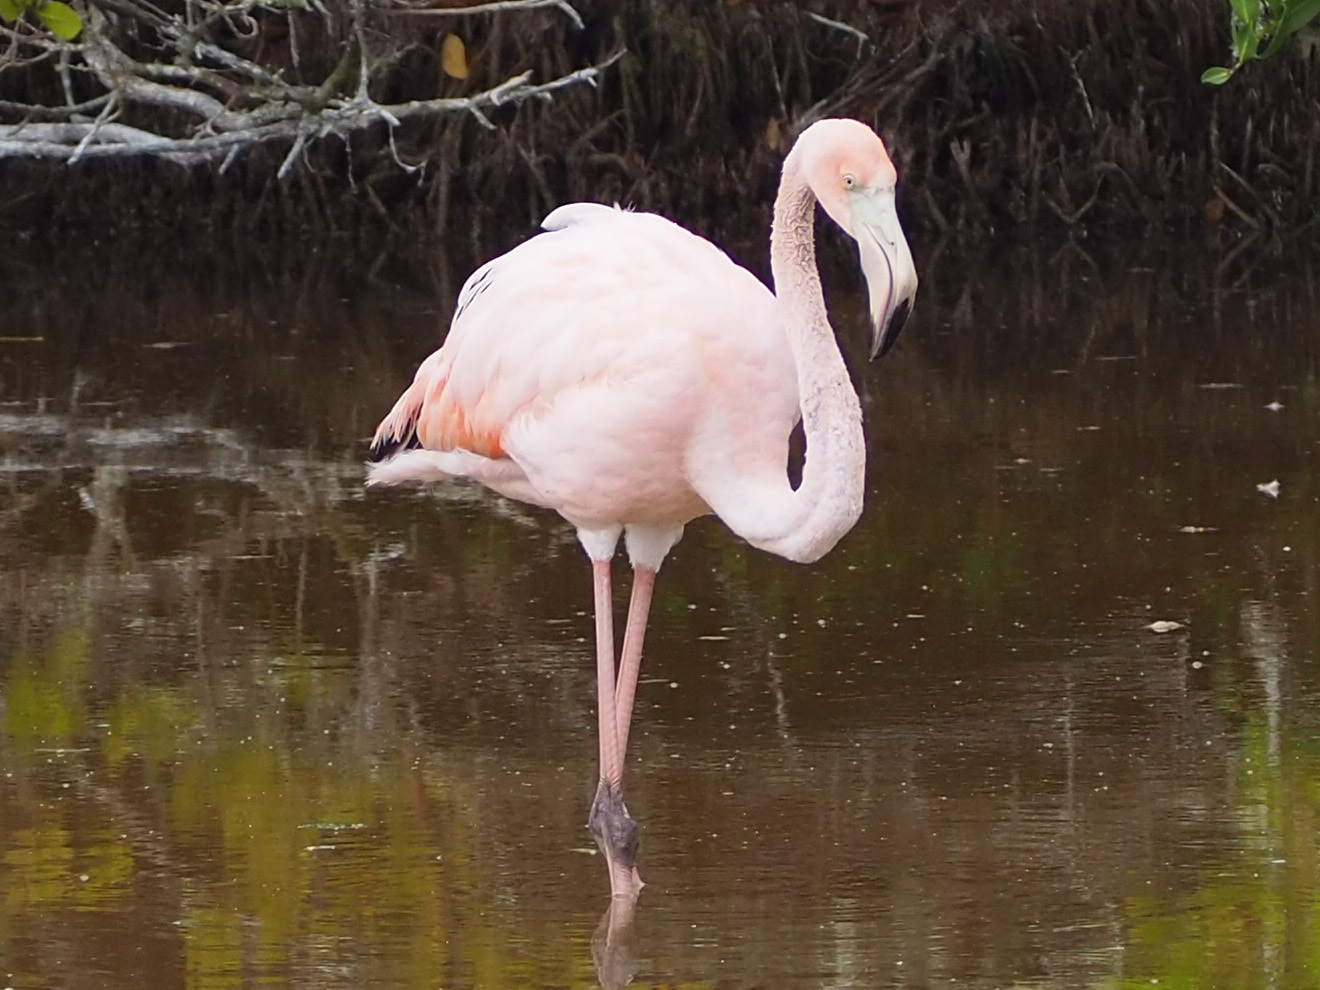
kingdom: Animalia
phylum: Chordata
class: Aves
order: Phoenicopteriformes
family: Phoenicopteridae
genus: Phoenicopterus
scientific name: Phoenicopterus ruber
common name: American flamingo
